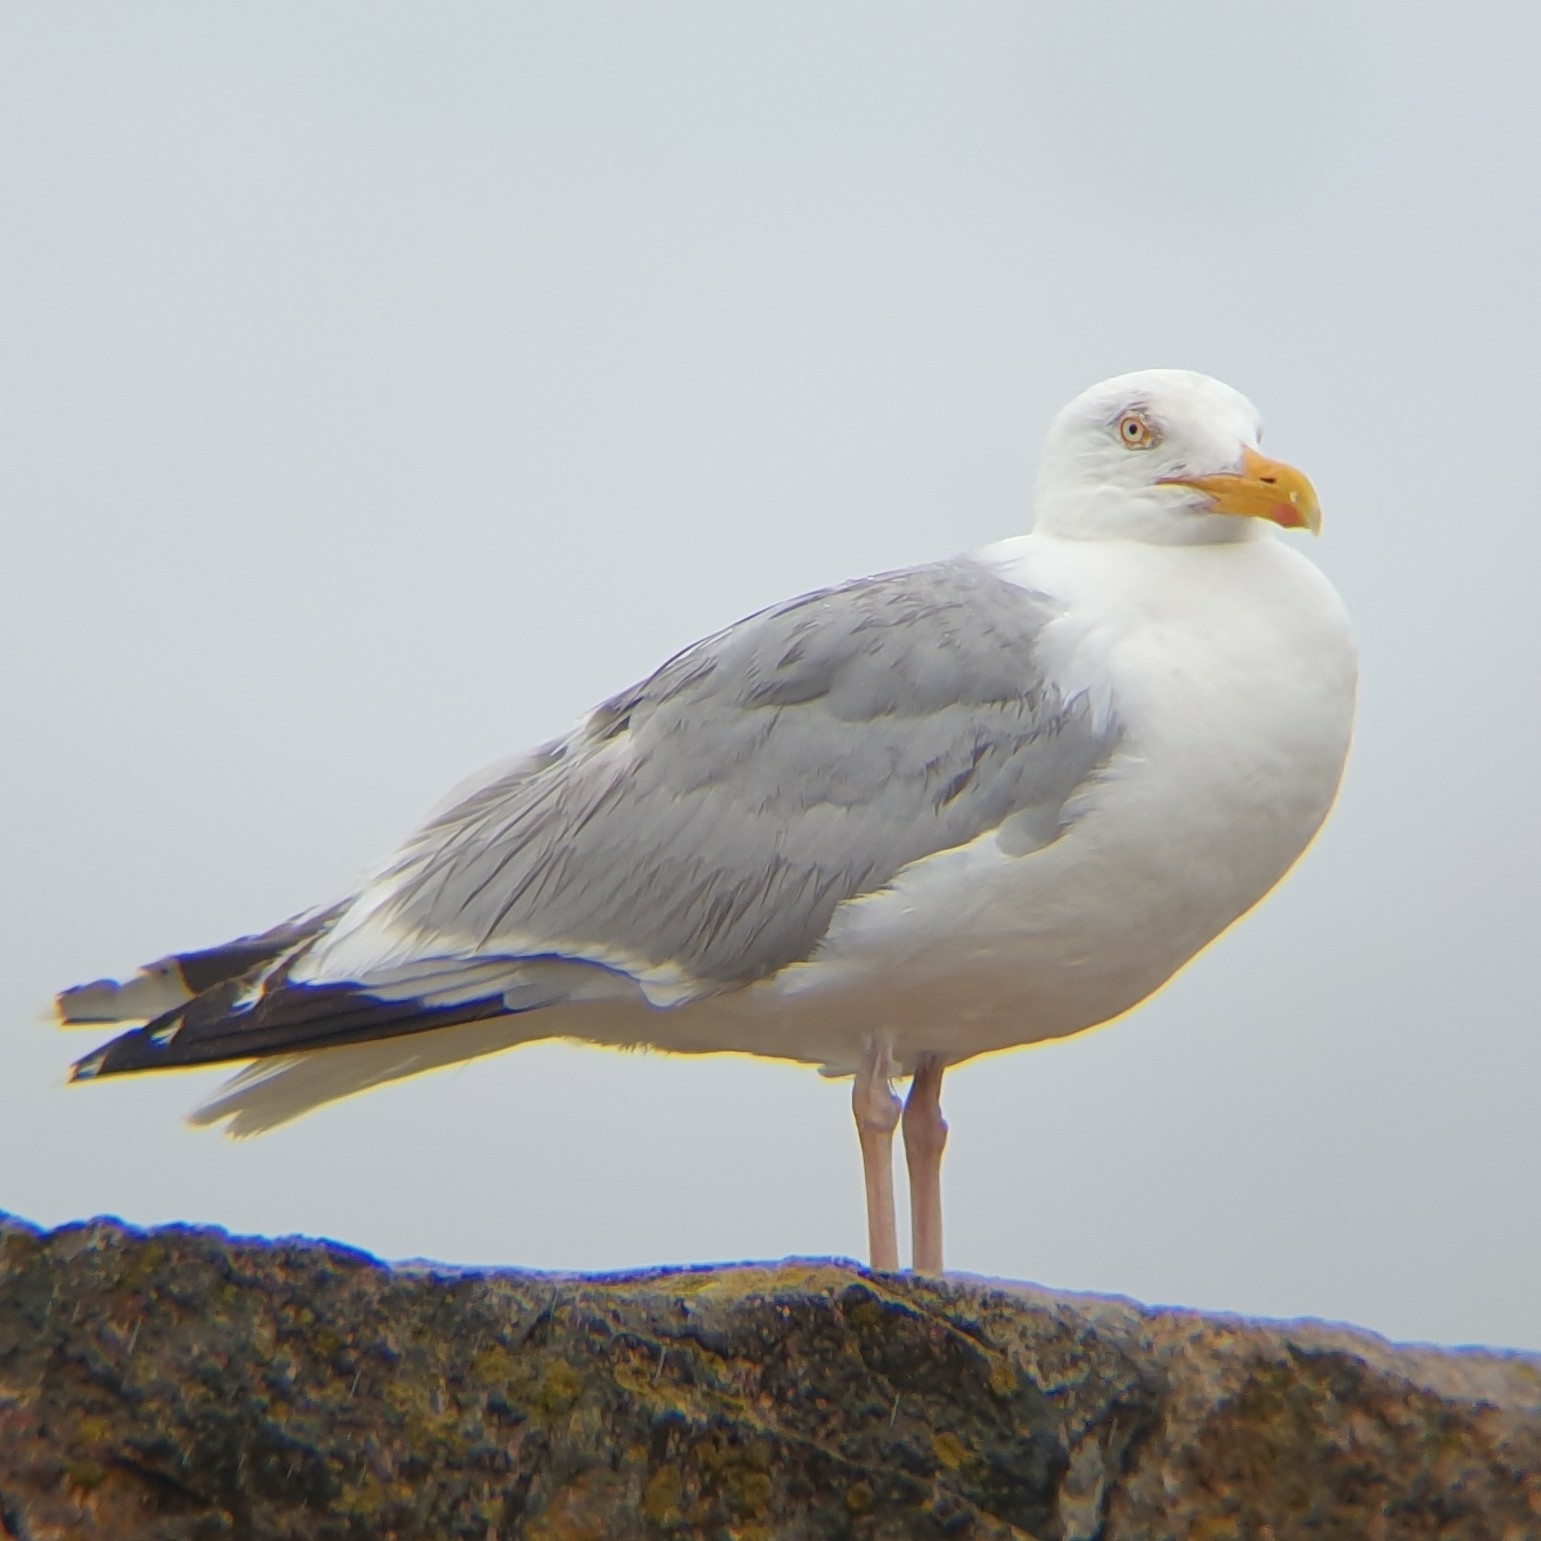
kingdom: Animalia
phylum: Chordata
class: Aves
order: Charadriiformes
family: Laridae
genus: Larus
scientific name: Larus argentatus
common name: Herring gull
